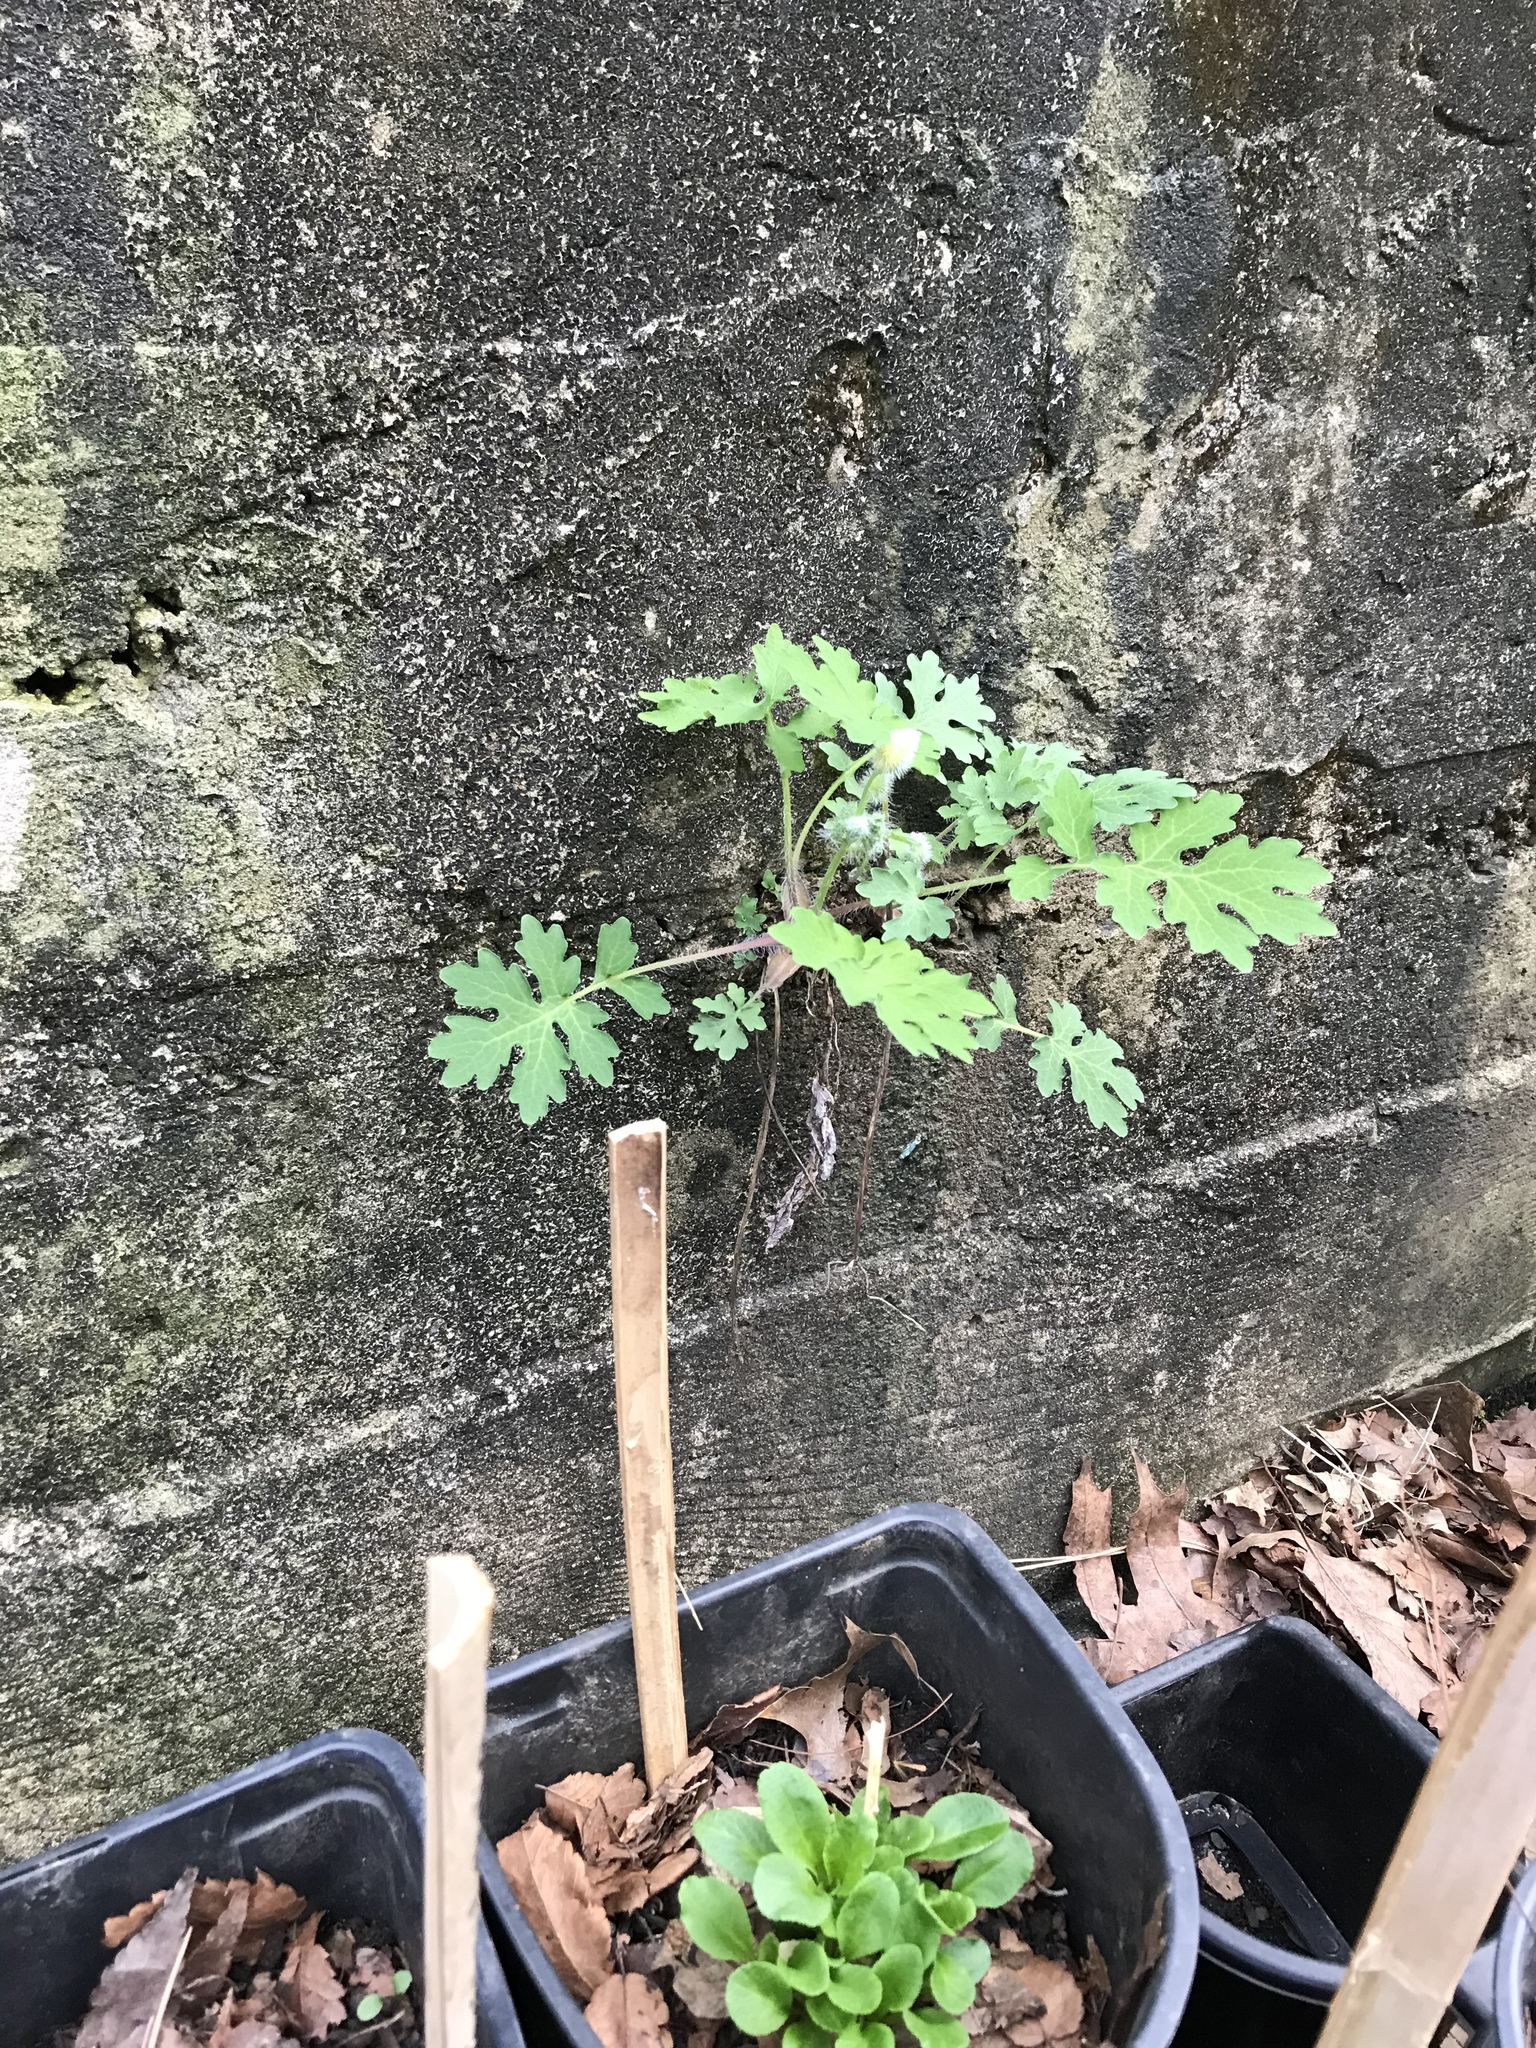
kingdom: Plantae
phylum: Tracheophyta
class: Magnoliopsida
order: Ranunculales
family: Papaveraceae
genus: Stylophorum
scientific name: Stylophorum diphyllum
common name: Celandine poppy
